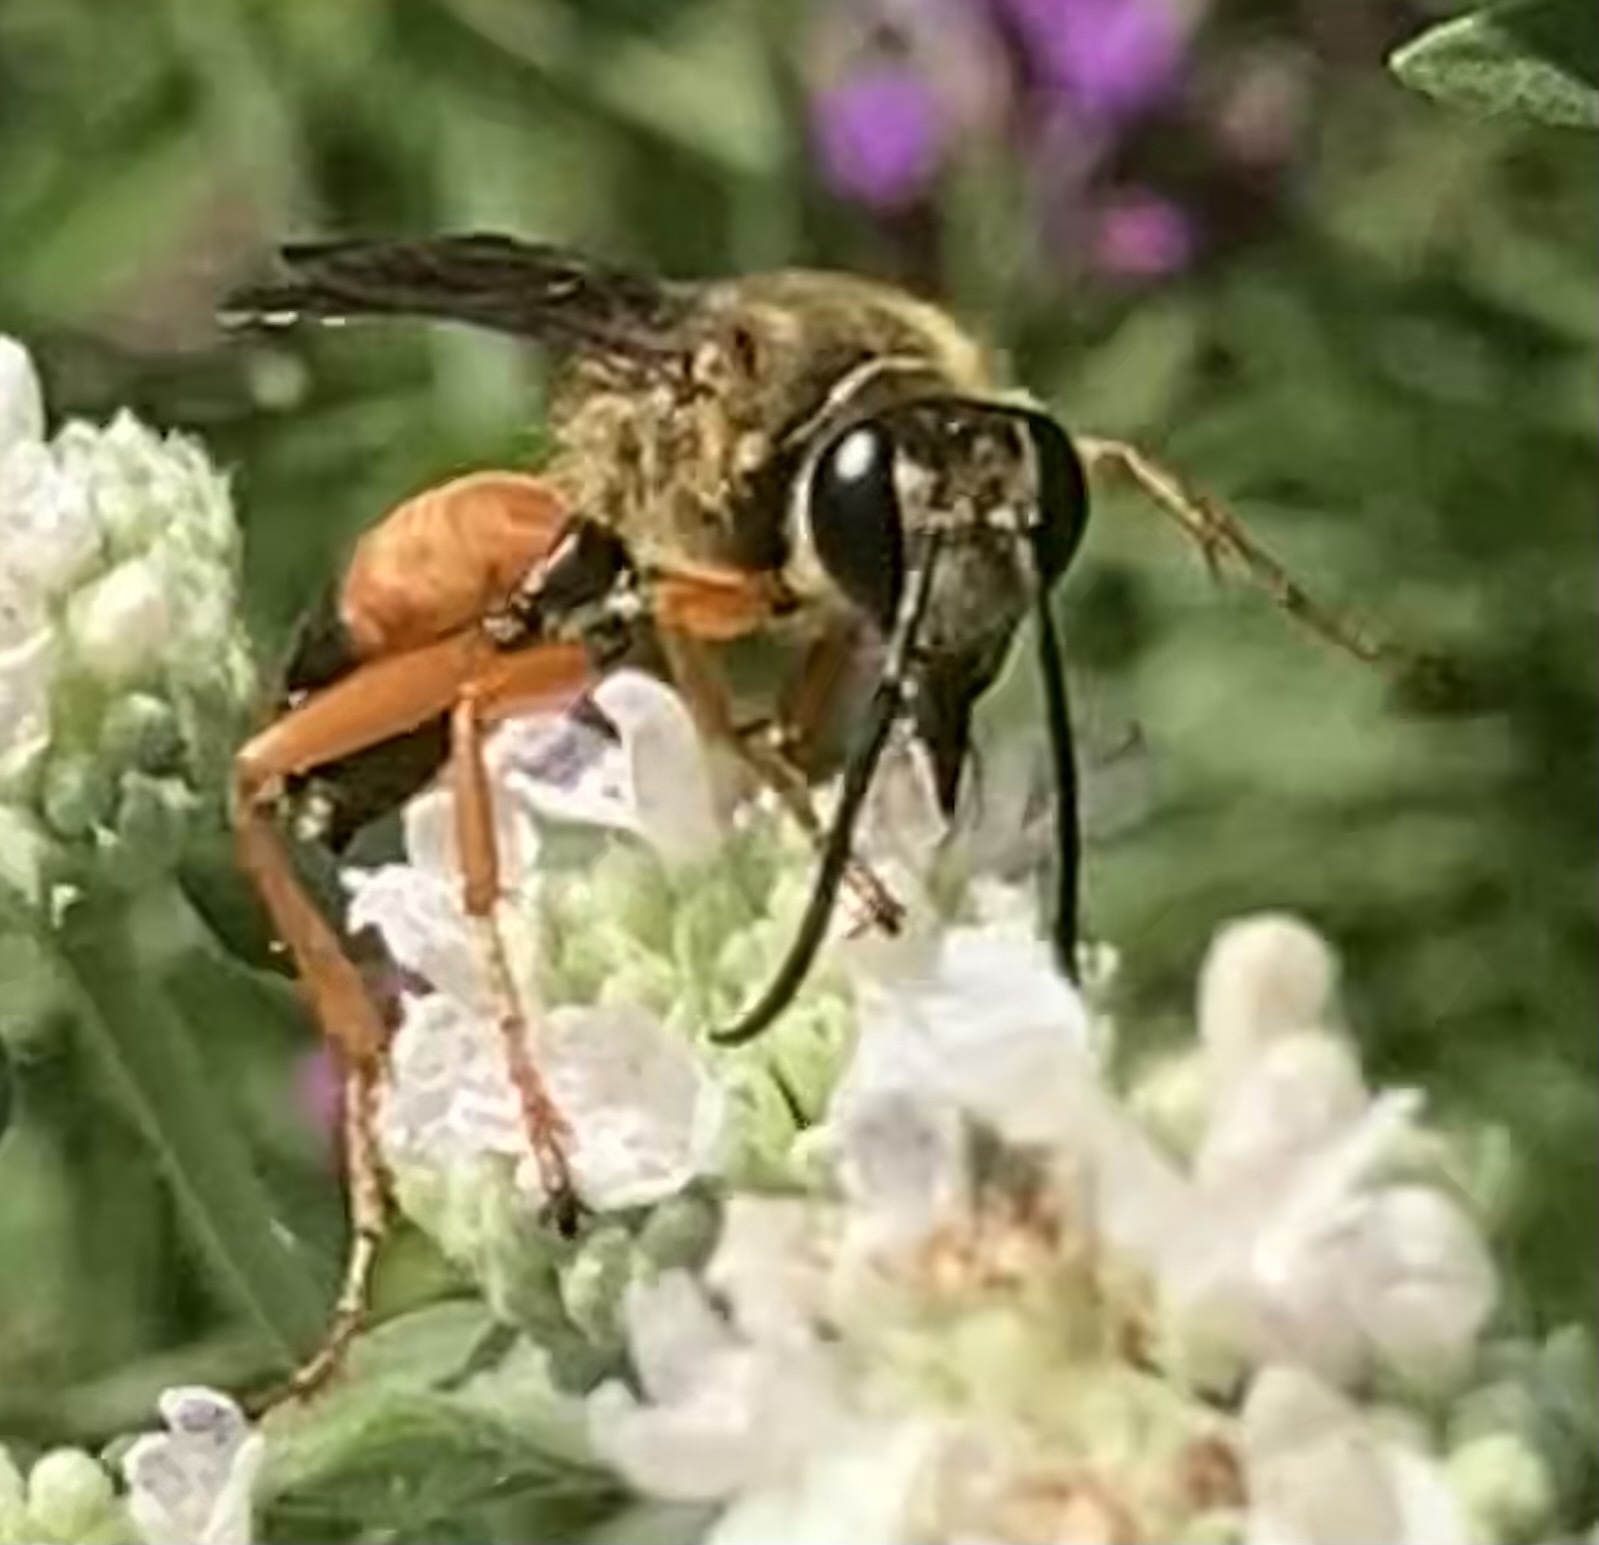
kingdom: Animalia
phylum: Arthropoda
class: Insecta
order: Hymenoptera
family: Sphecidae
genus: Sphex
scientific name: Sphex ichneumoneus
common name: Great golden digger wasp
